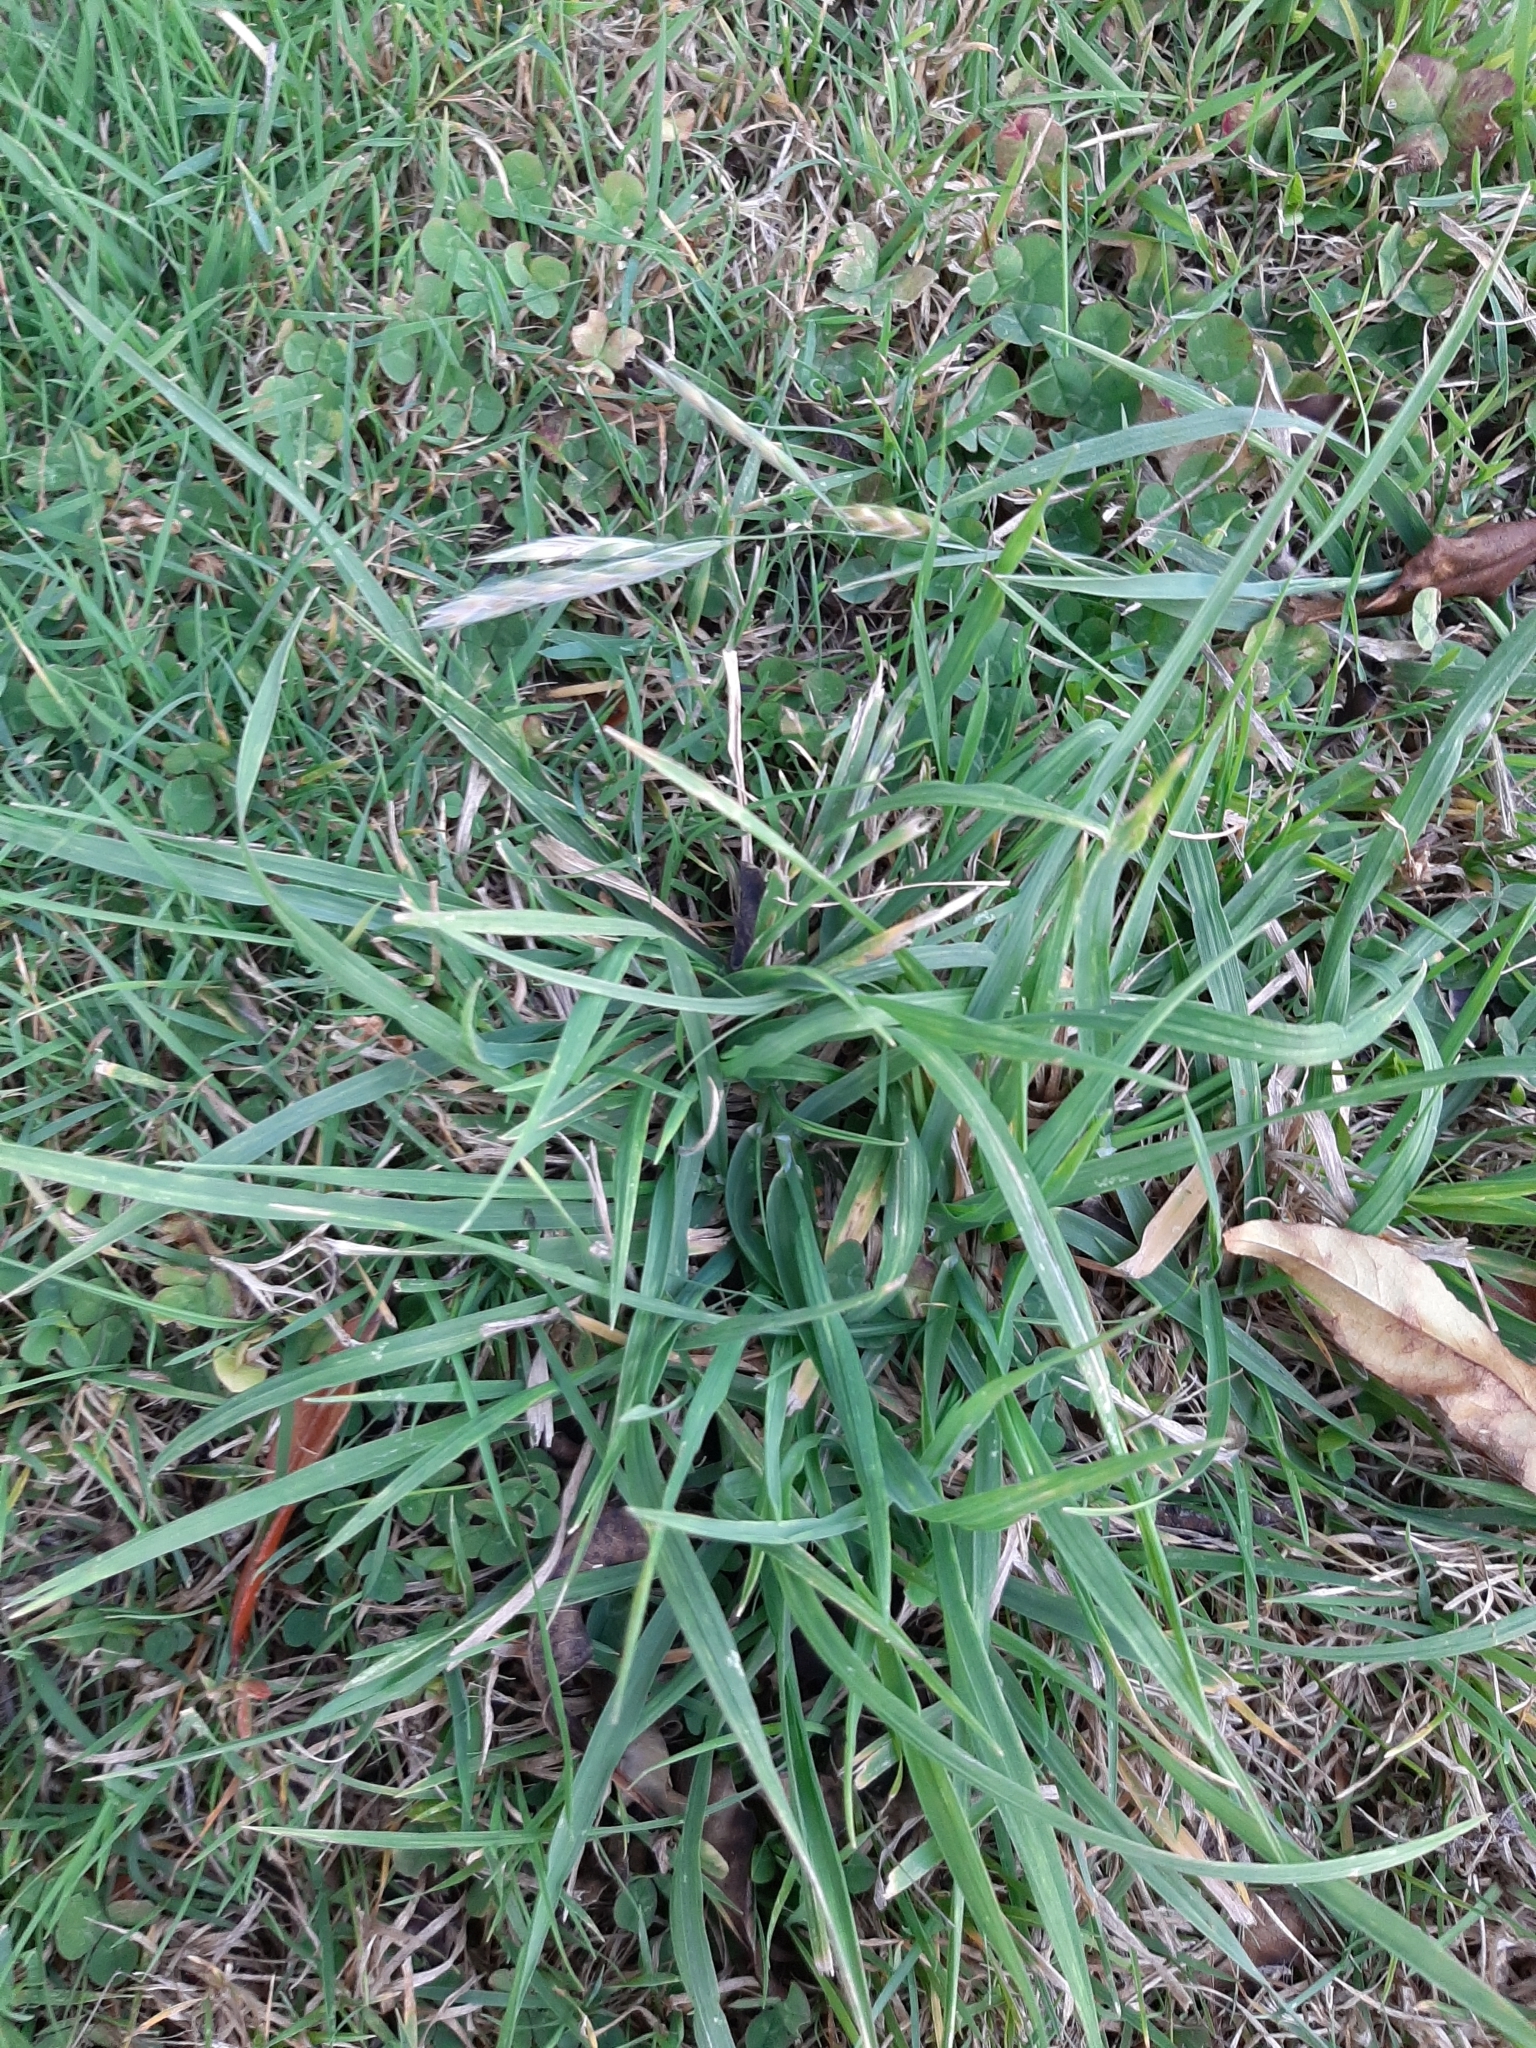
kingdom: Plantae
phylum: Tracheophyta
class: Liliopsida
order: Poales
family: Poaceae
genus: Bromus
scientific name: Bromus catharticus
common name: Rescuegrass
